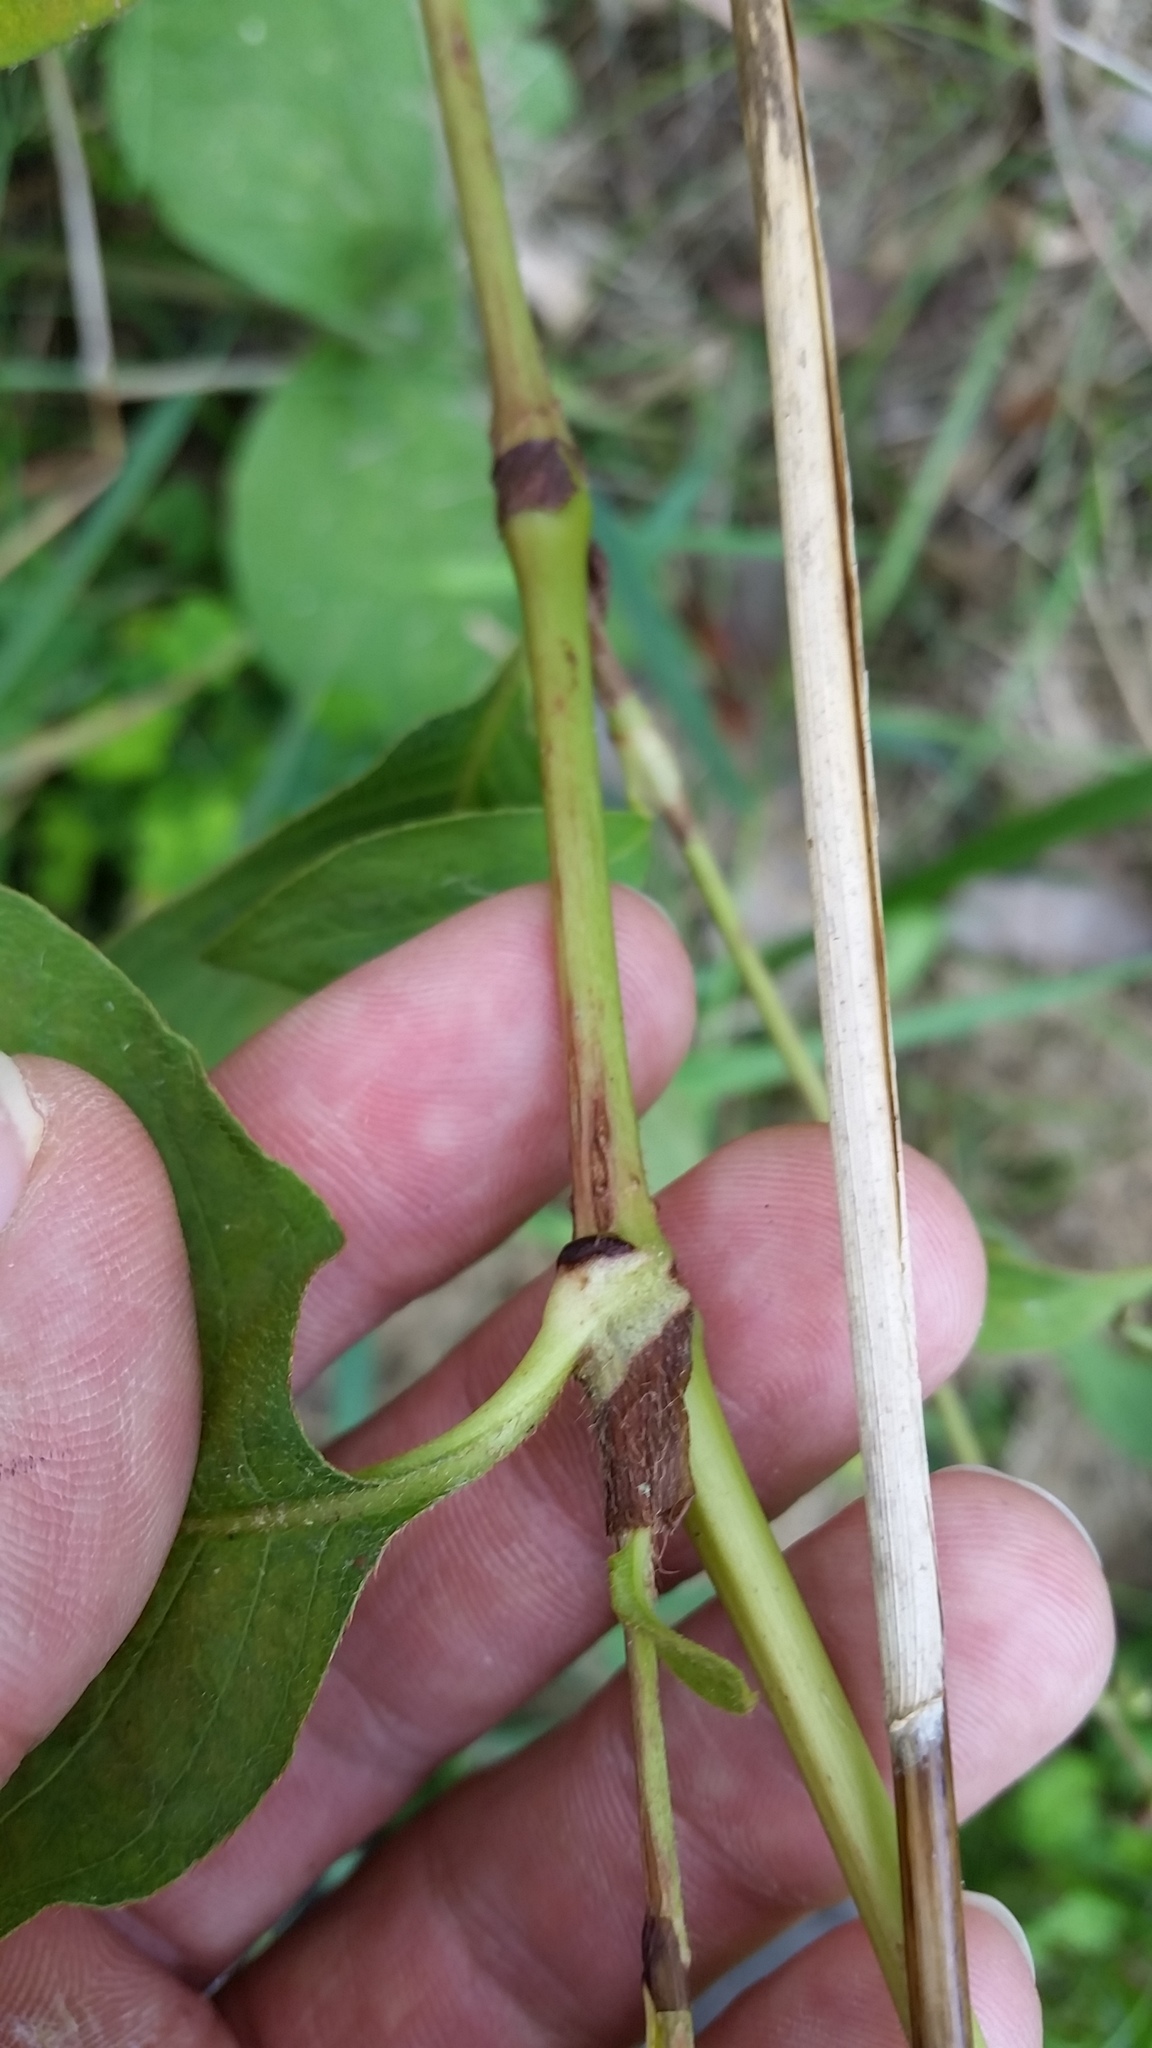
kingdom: Plantae
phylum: Tracheophyta
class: Magnoliopsida
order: Caryophyllales
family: Polygonaceae
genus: Persicaria
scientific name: Persicaria virginiana
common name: Jumpseed
